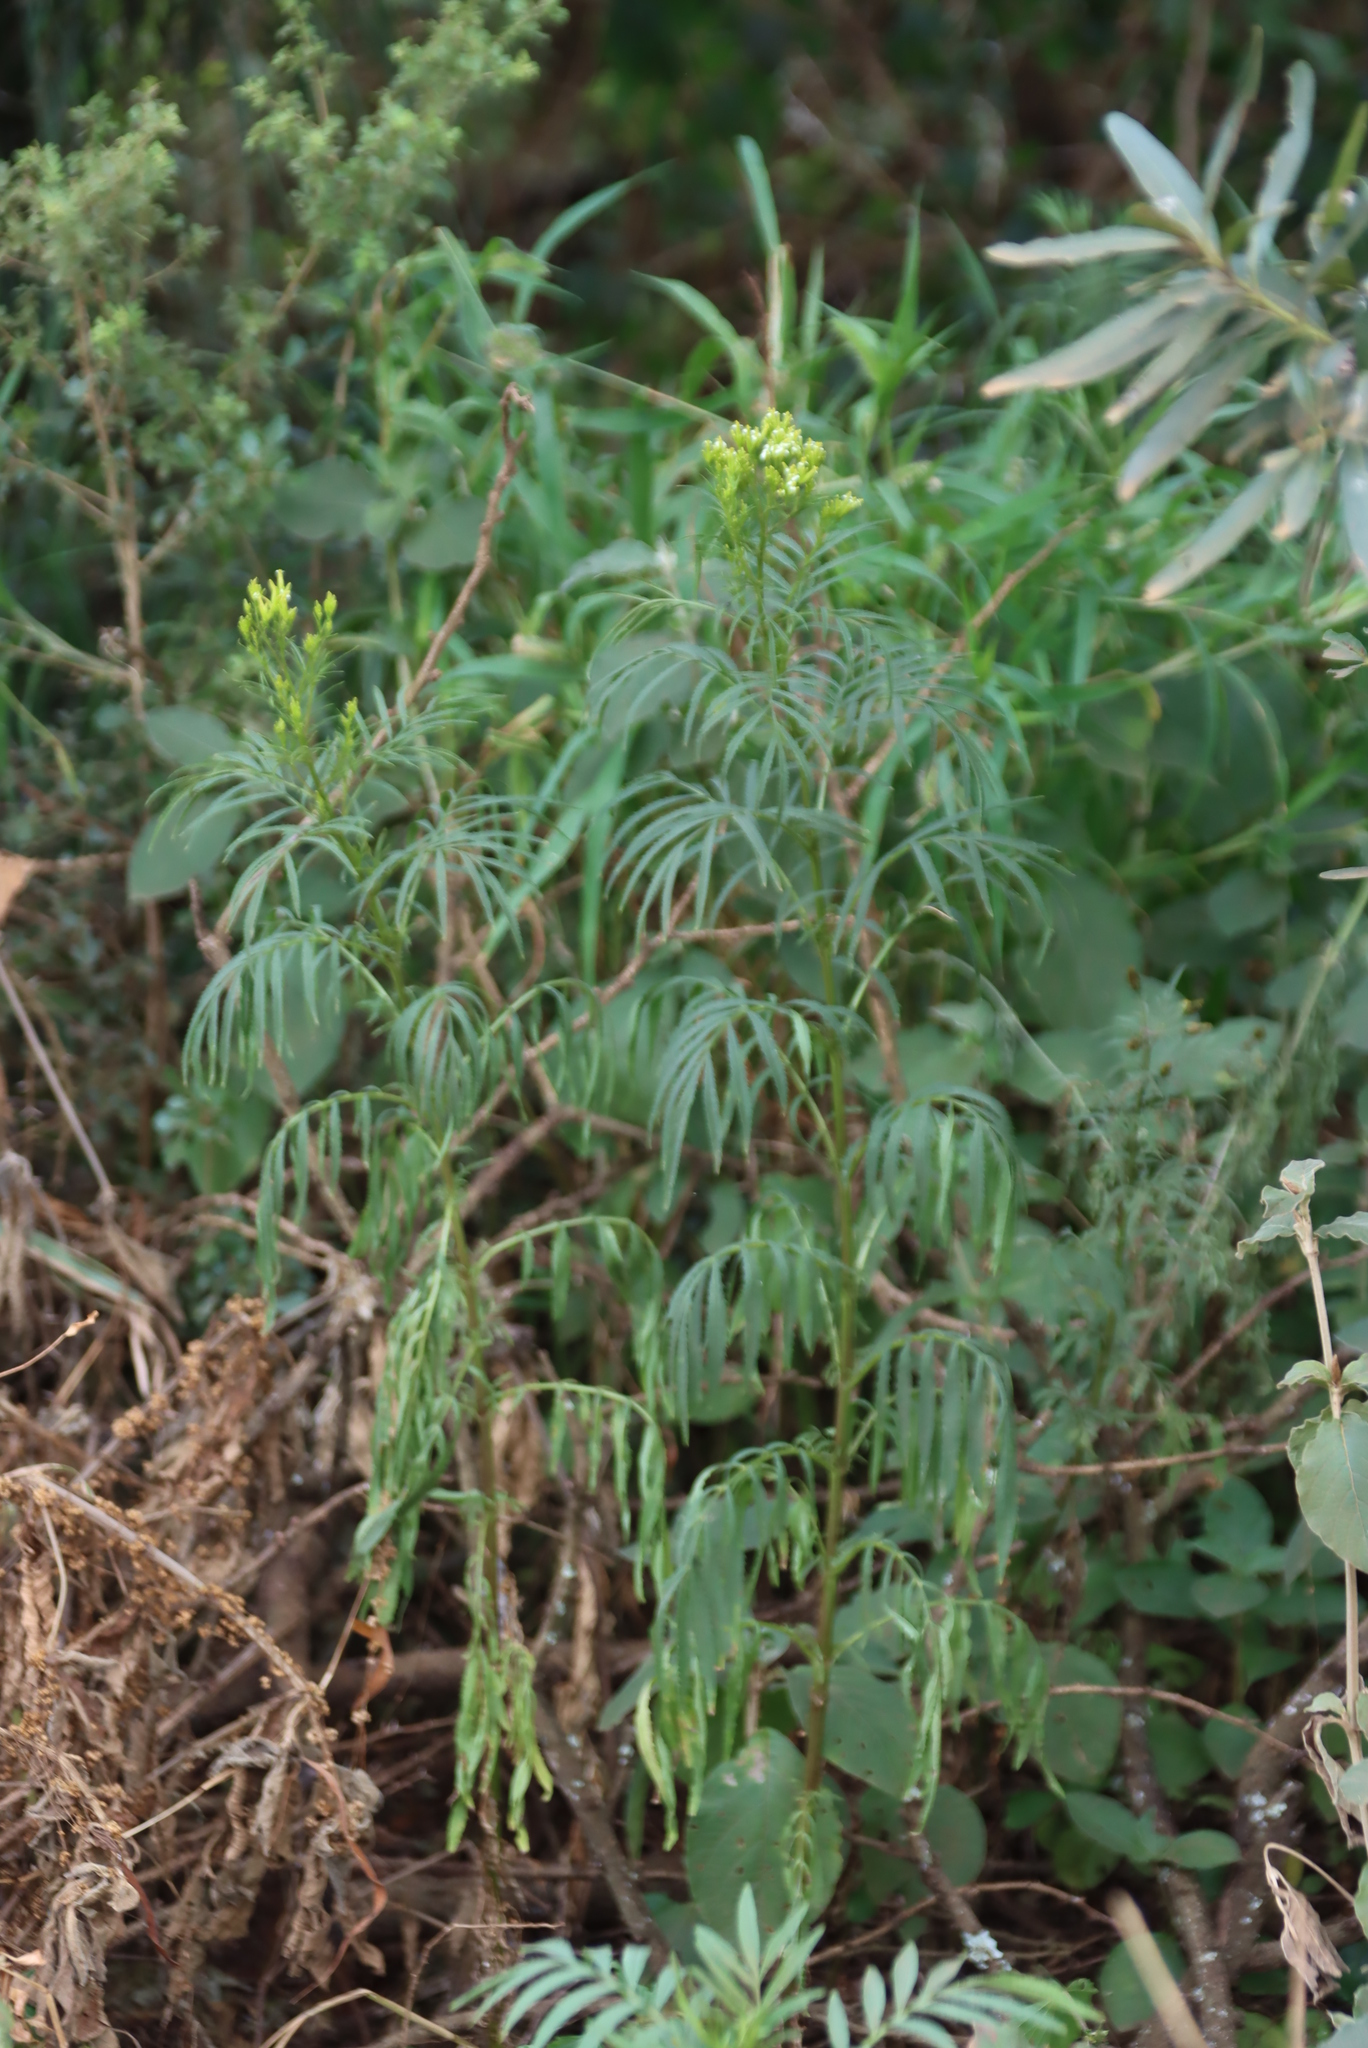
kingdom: Plantae
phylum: Tracheophyta
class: Magnoliopsida
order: Asterales
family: Asteraceae
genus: Tagetes
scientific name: Tagetes minuta
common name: Muster john henry
